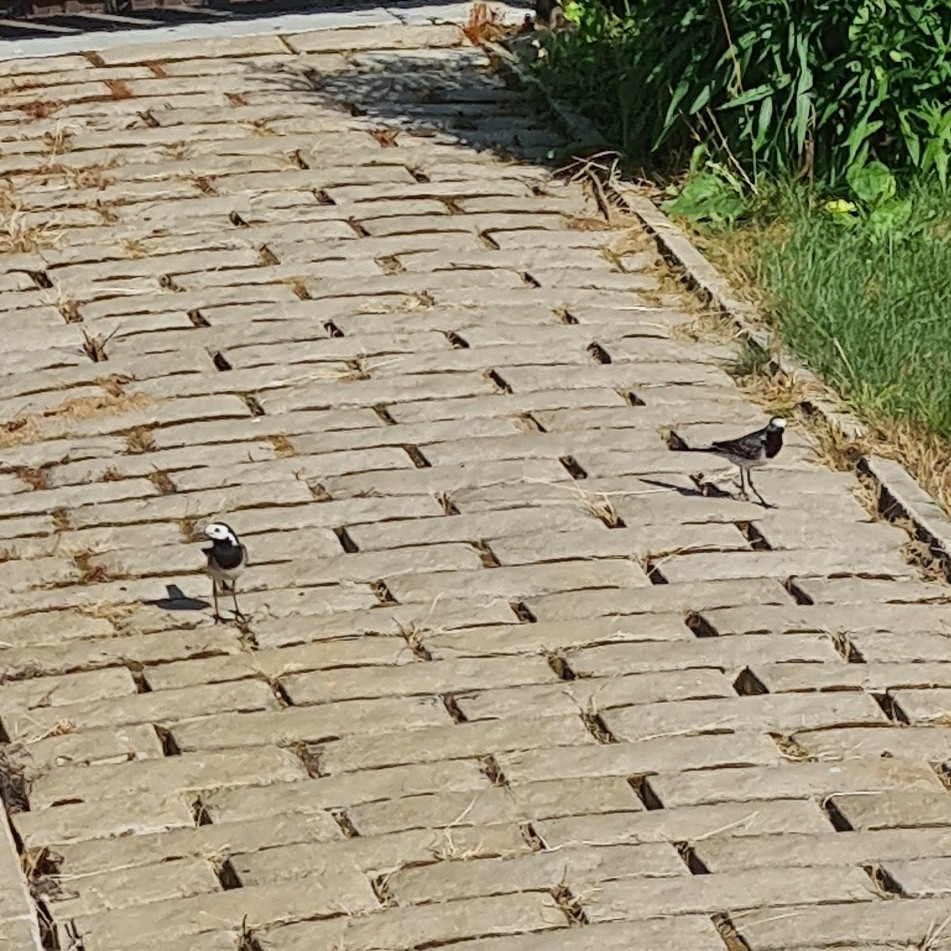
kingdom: Animalia
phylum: Chordata
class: Aves
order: Passeriformes
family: Motacillidae
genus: Motacilla
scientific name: Motacilla alba
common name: White wagtail
